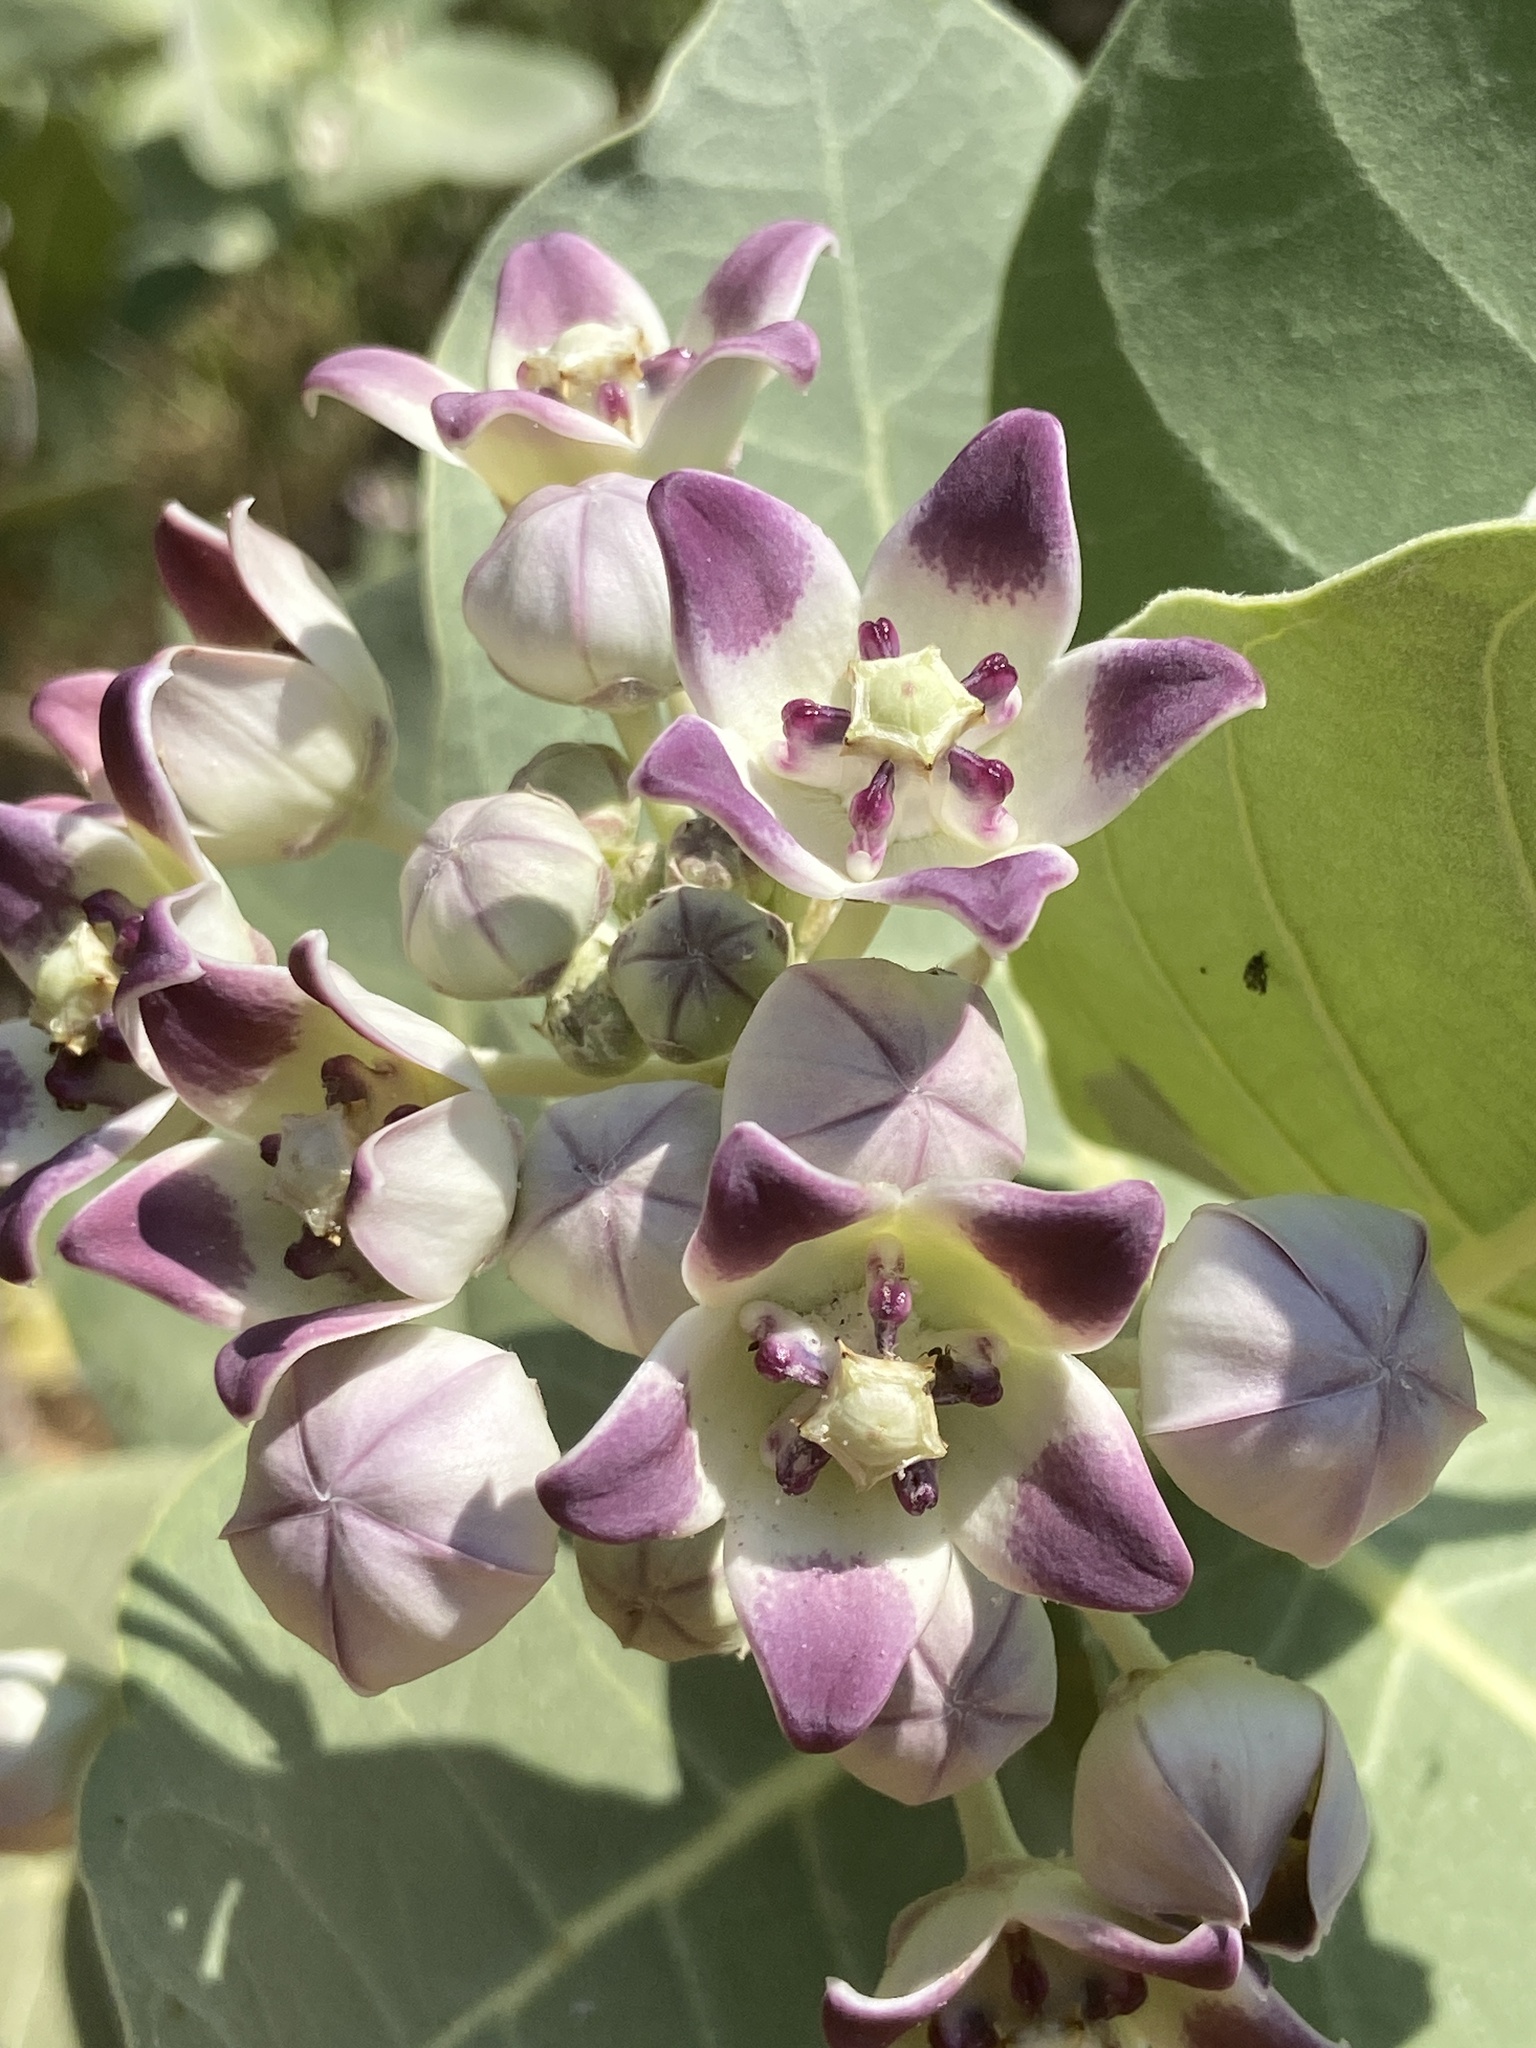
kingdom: Plantae
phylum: Tracheophyta
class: Magnoliopsida
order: Gentianales
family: Apocynaceae
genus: Calotropis
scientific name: Calotropis procera
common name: Roostertree
